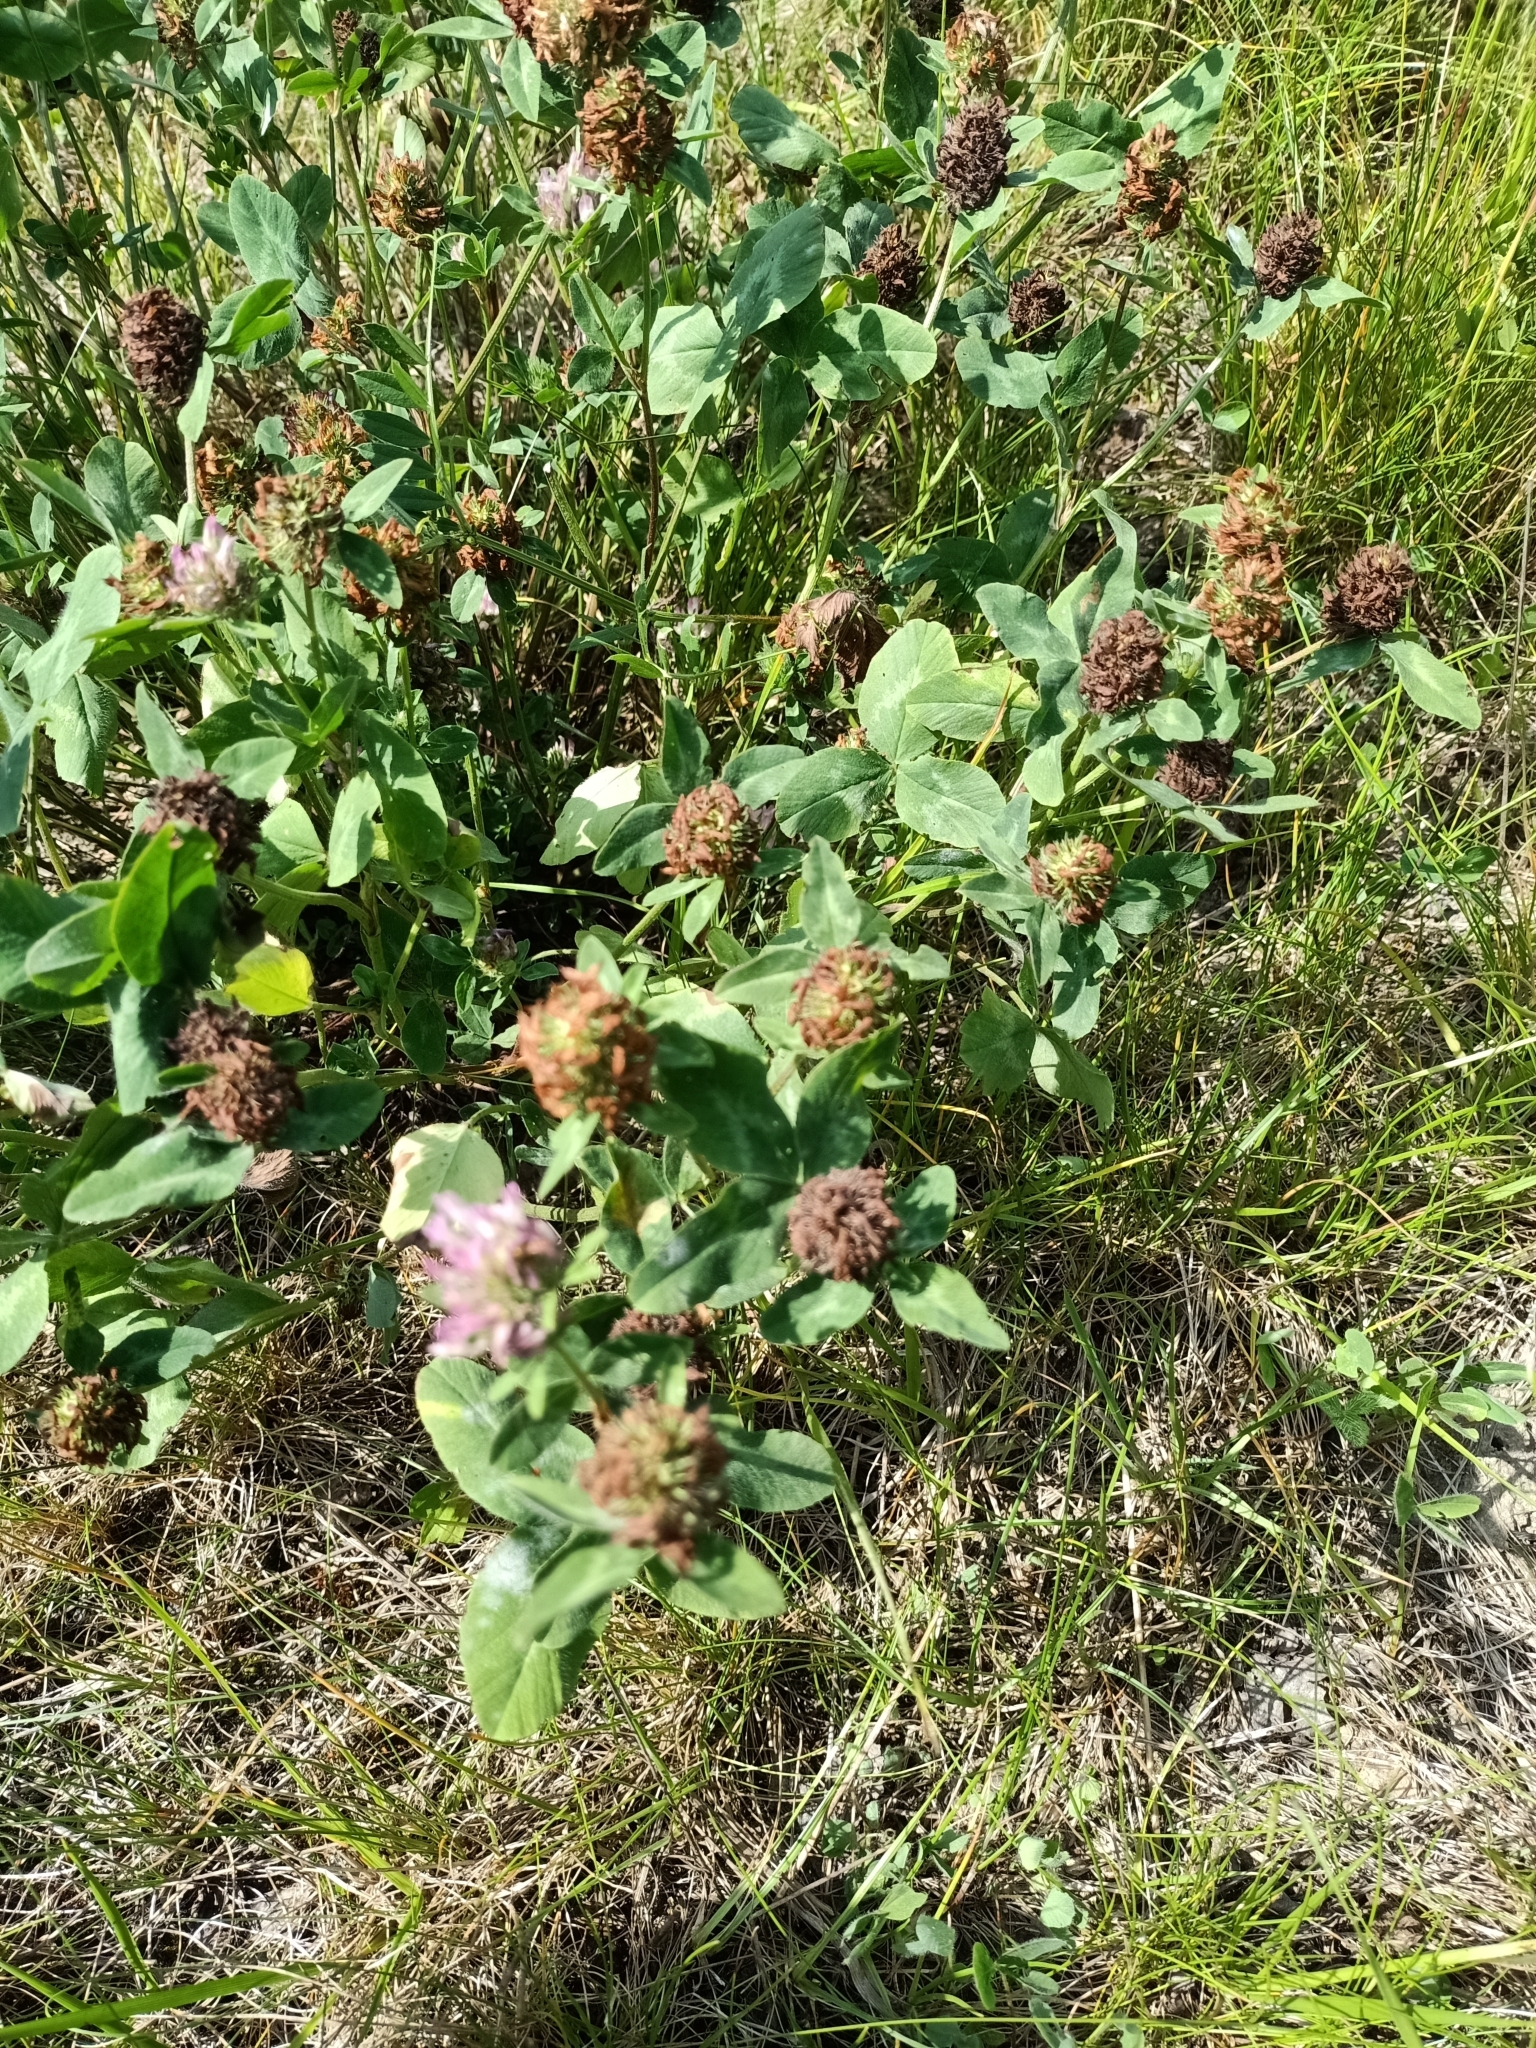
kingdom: Plantae
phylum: Tracheophyta
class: Magnoliopsida
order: Fabales
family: Fabaceae
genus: Trifolium
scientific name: Trifolium pratense
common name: Red clover
